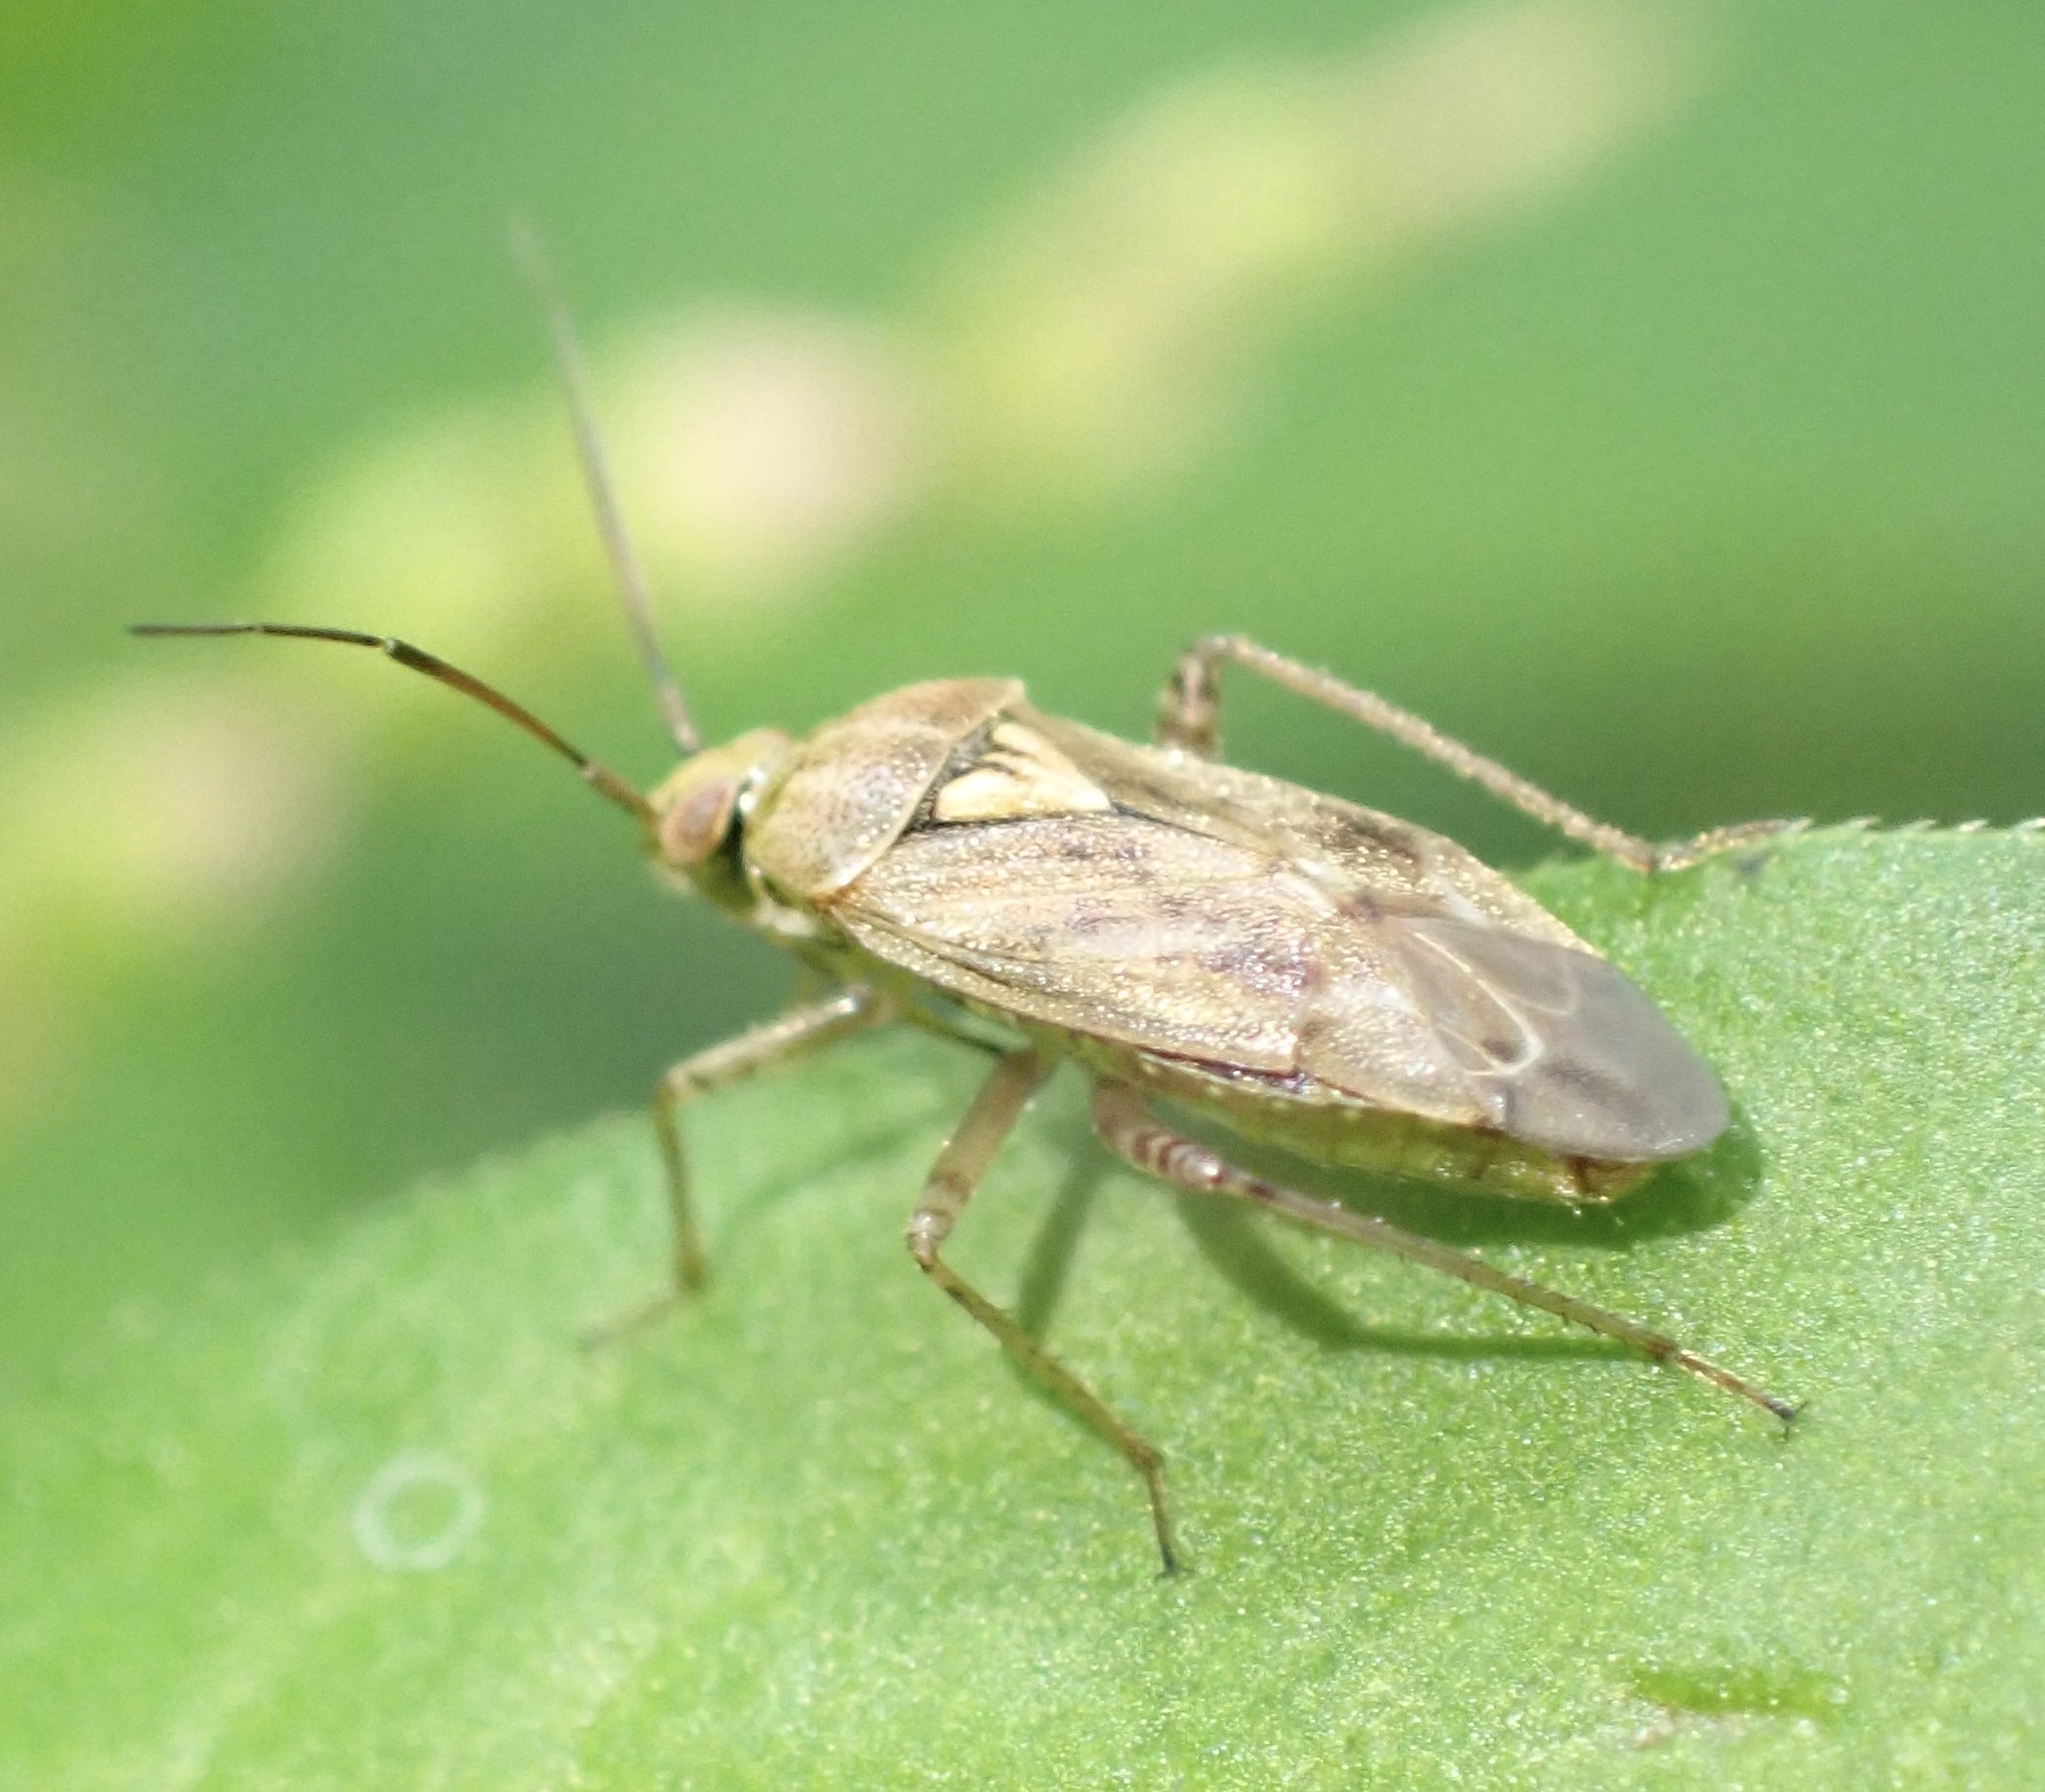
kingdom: Animalia
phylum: Arthropoda
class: Insecta
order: Hemiptera
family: Miridae
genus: Lygus
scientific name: Lygus rugulipennis
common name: European tarnished plant bug
